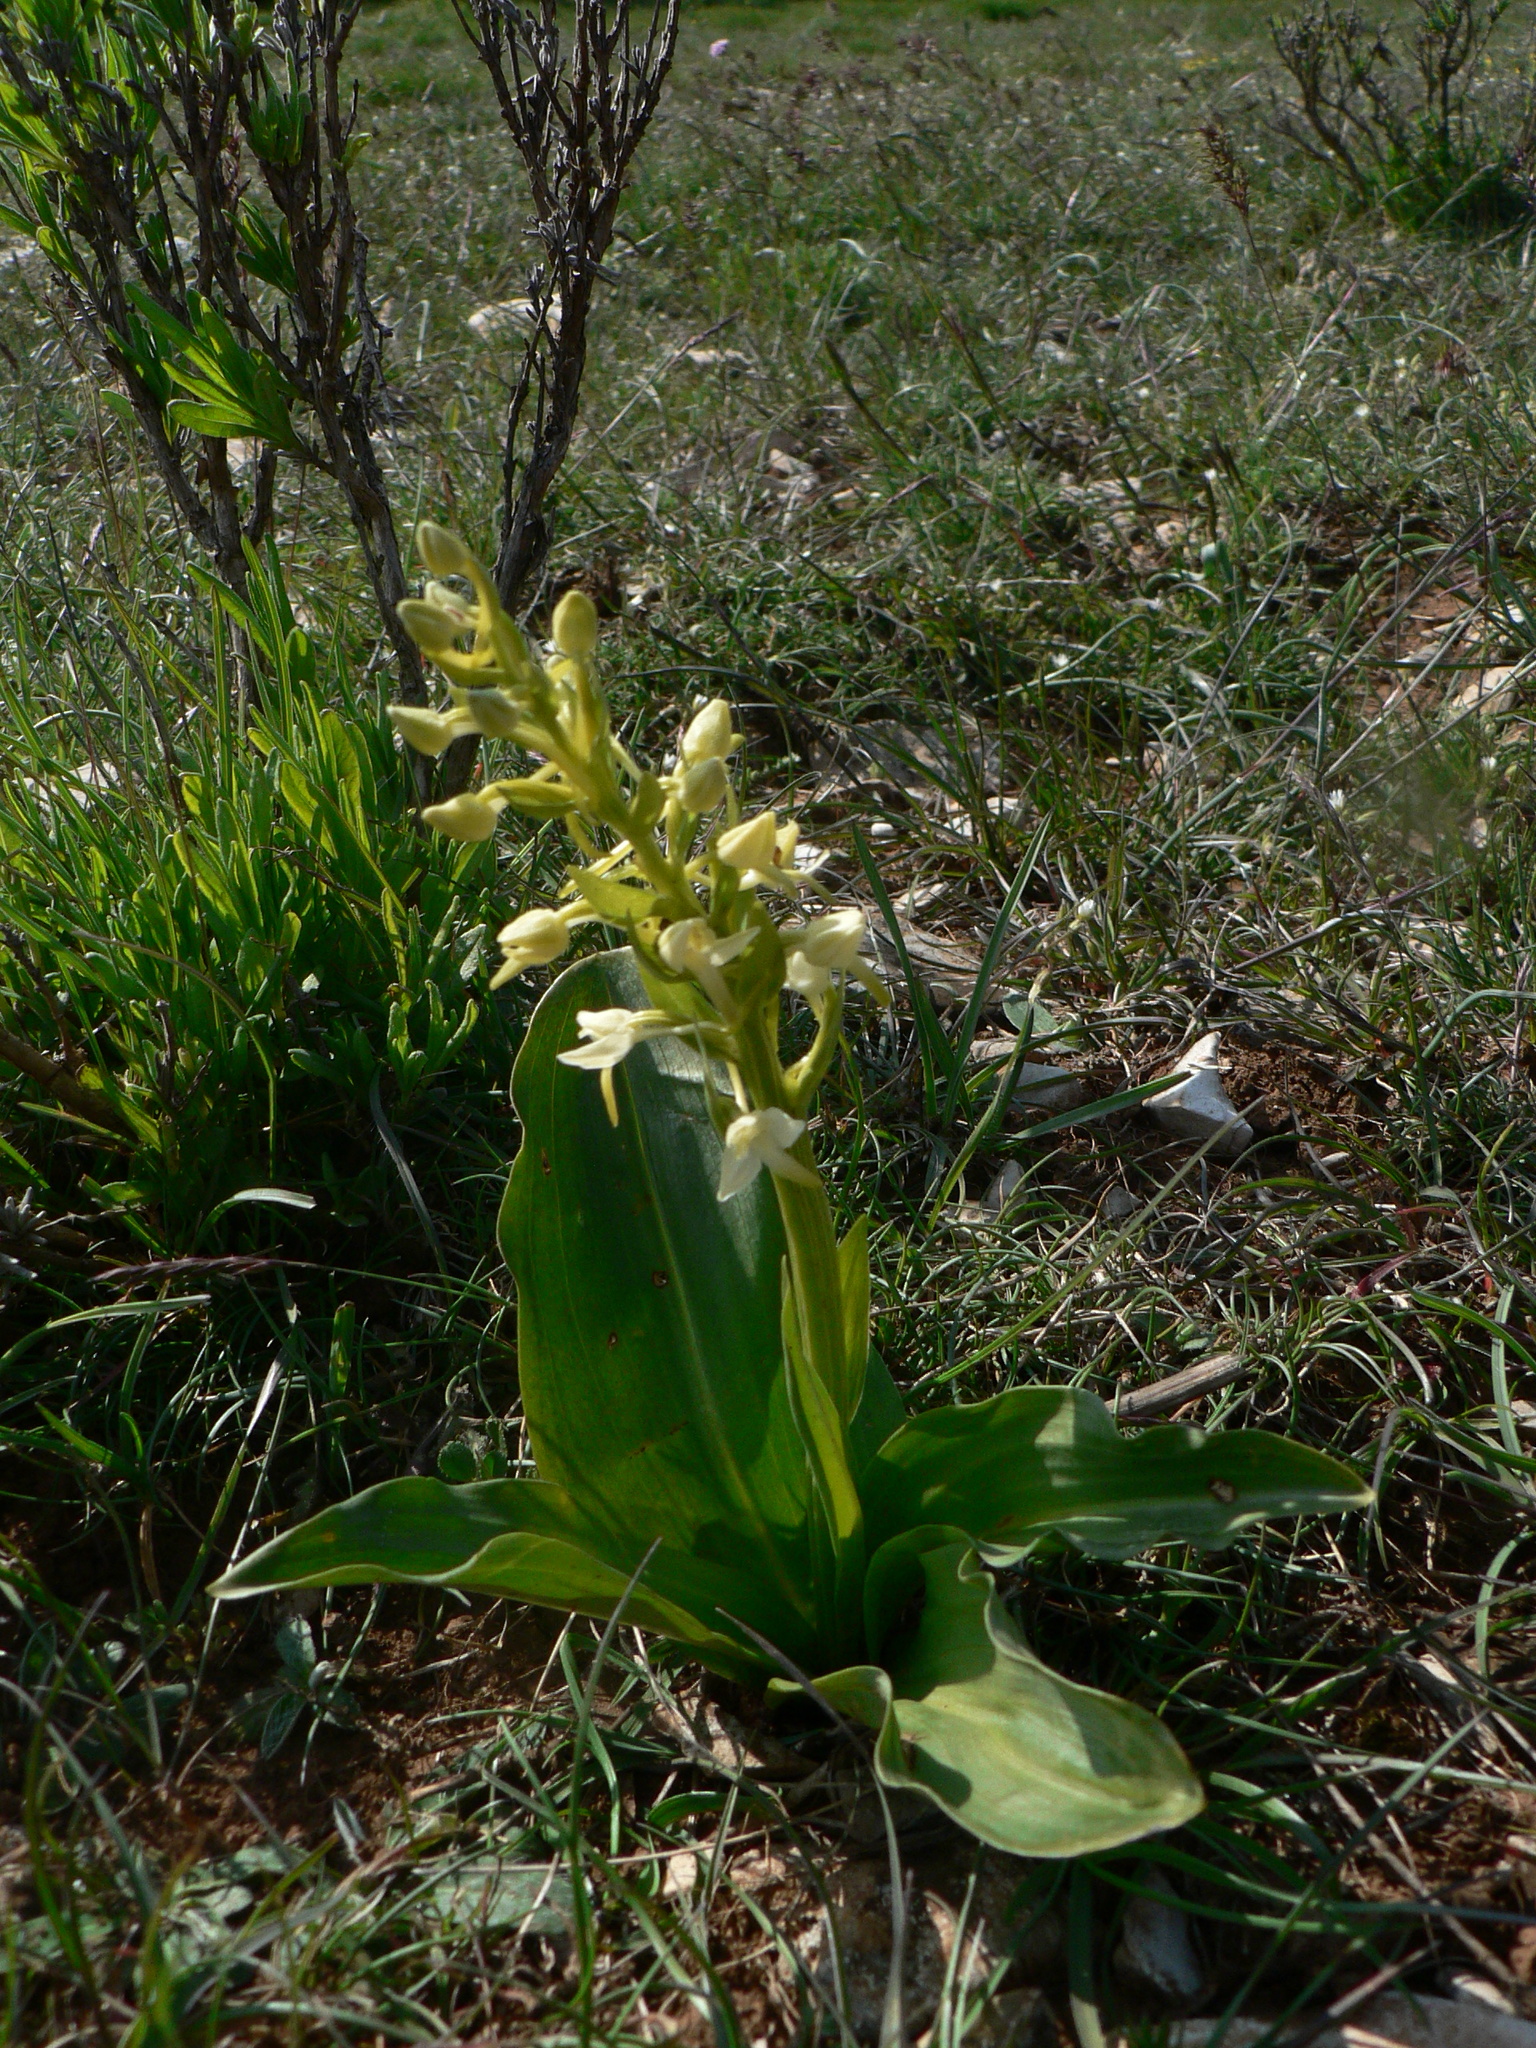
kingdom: Plantae
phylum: Tracheophyta
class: Liliopsida
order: Asparagales
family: Orchidaceae
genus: Platanthera
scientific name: Platanthera chlorantha
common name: Greater butterfly-orchid
